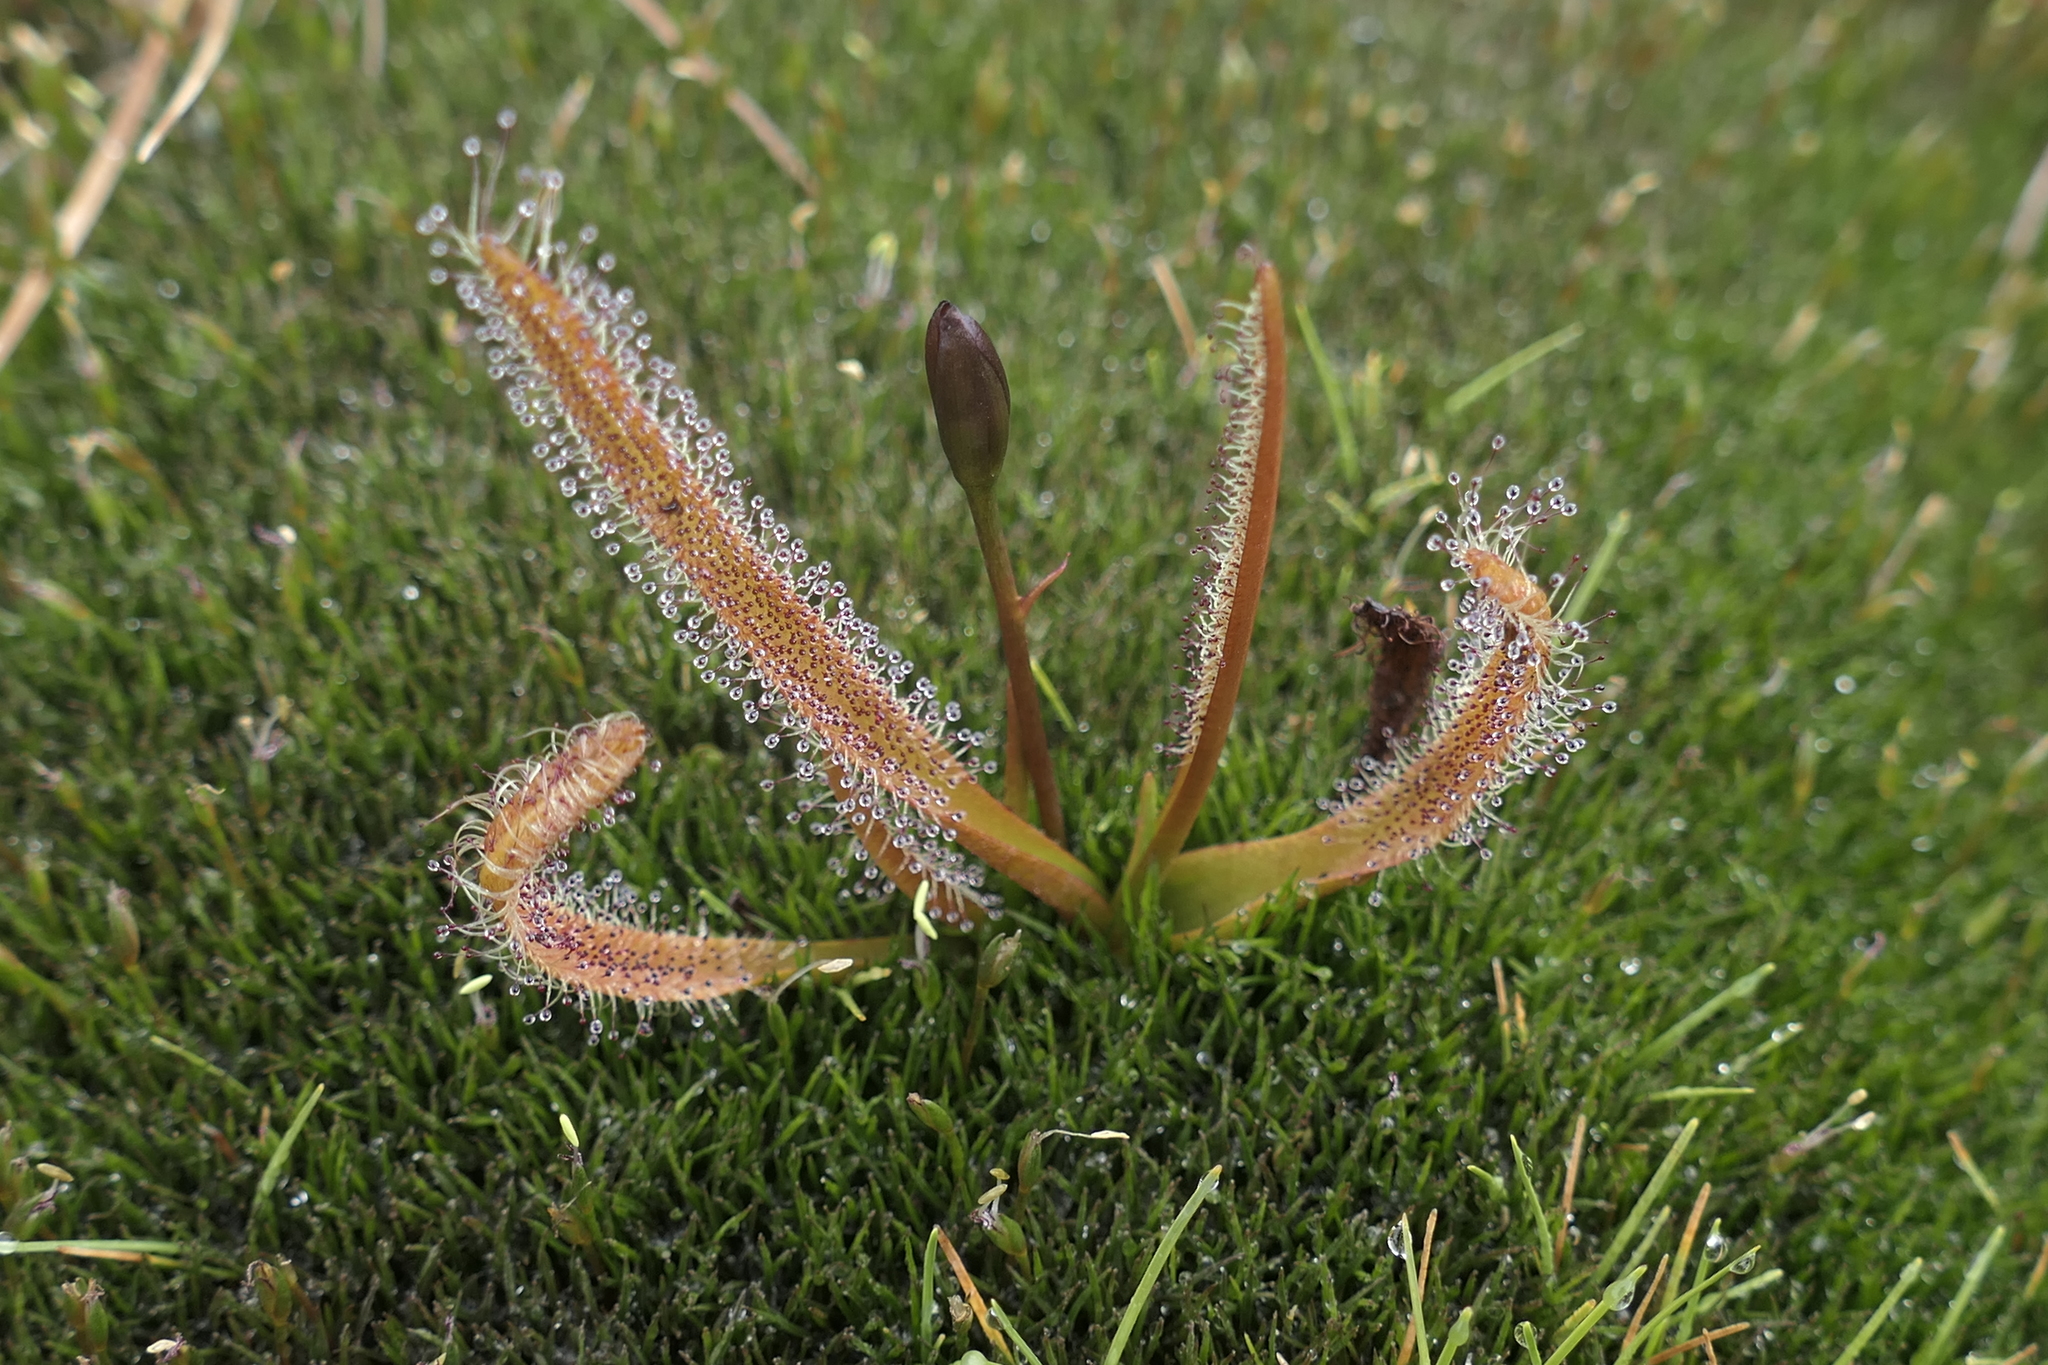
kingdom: Plantae
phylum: Tracheophyta
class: Magnoliopsida
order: Caryophyllales
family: Droseraceae
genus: Drosera
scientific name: Drosera arcturi
